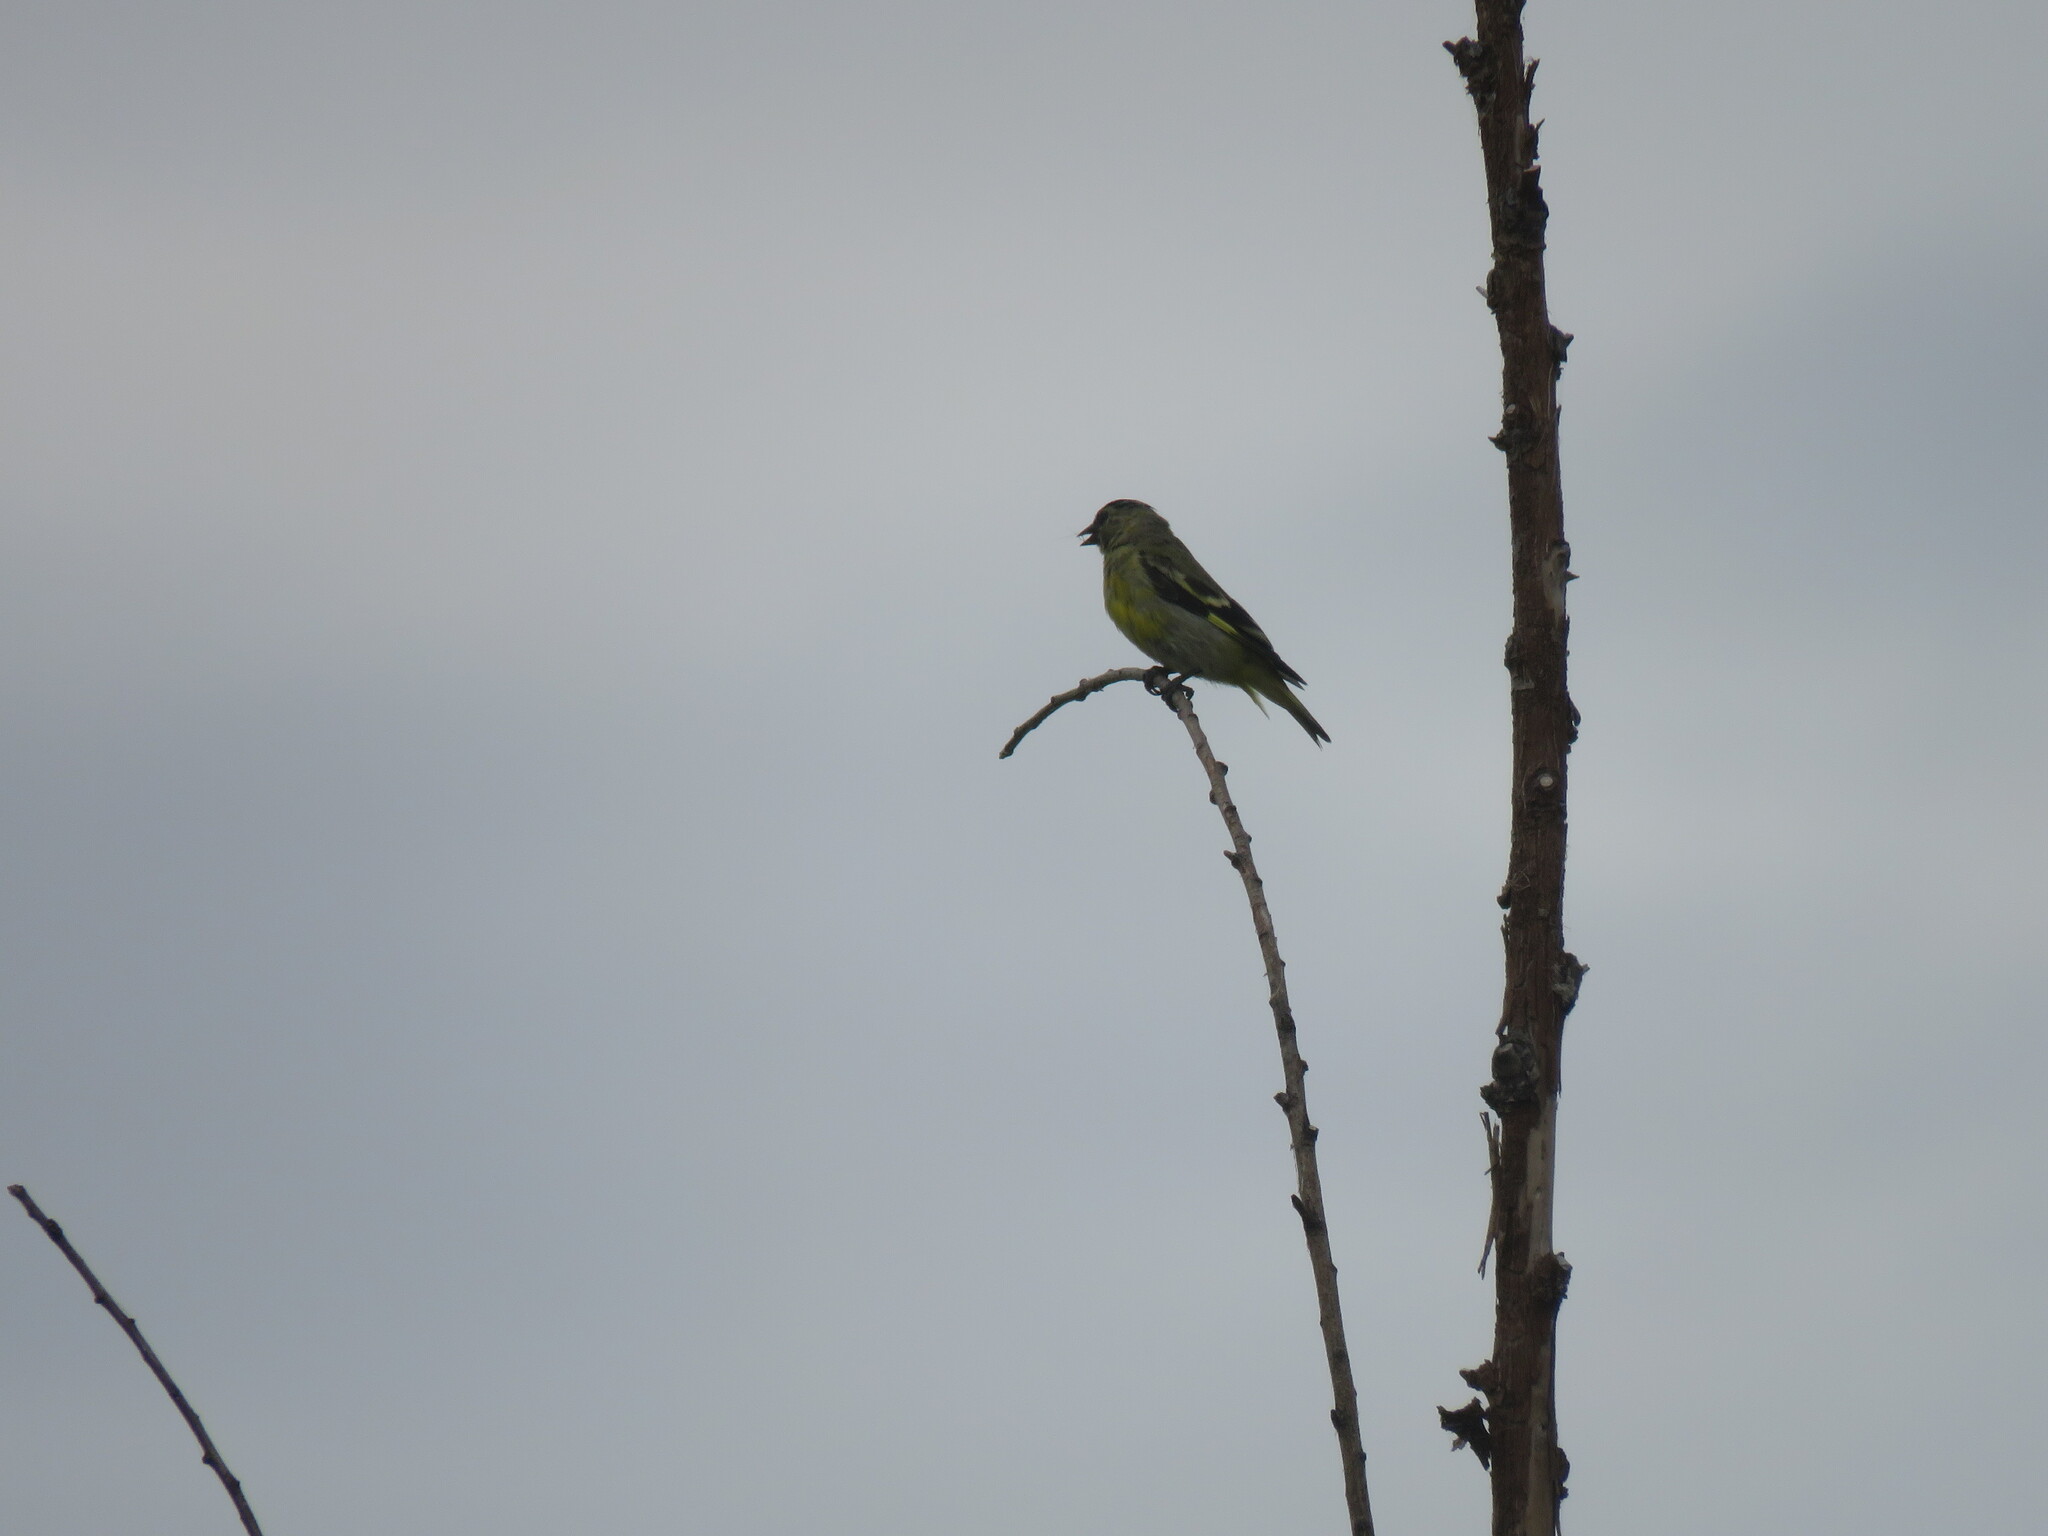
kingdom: Animalia
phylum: Chordata
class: Aves
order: Passeriformes
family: Fringillidae
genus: Spinus
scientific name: Spinus magellanicus
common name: Hooded siskin
